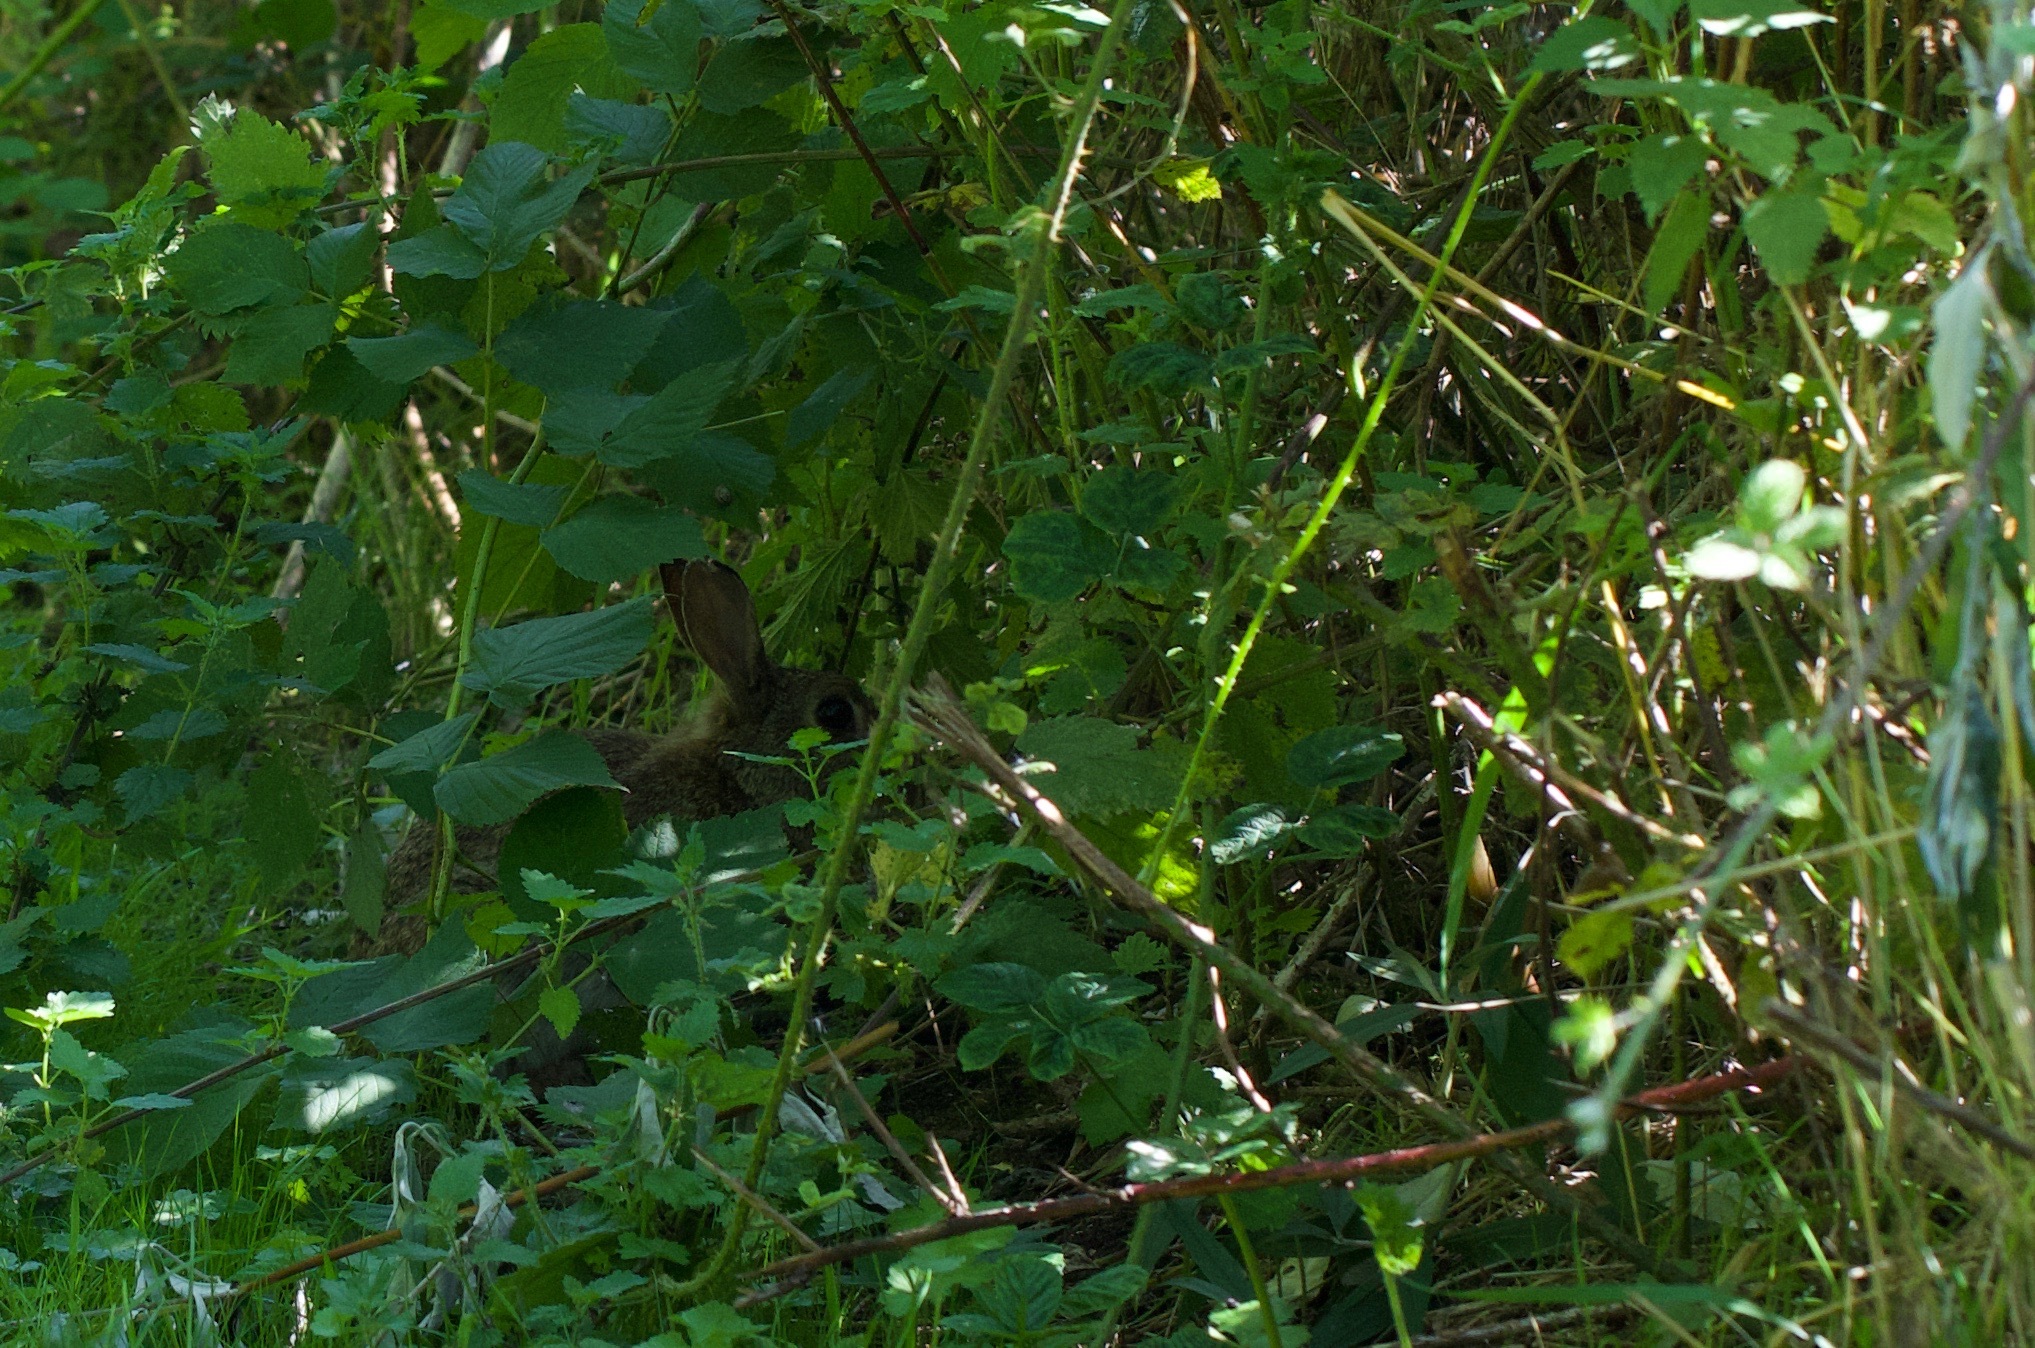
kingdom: Animalia
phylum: Chordata
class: Mammalia
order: Lagomorpha
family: Leporidae
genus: Oryctolagus
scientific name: Oryctolagus cuniculus
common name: European rabbit
